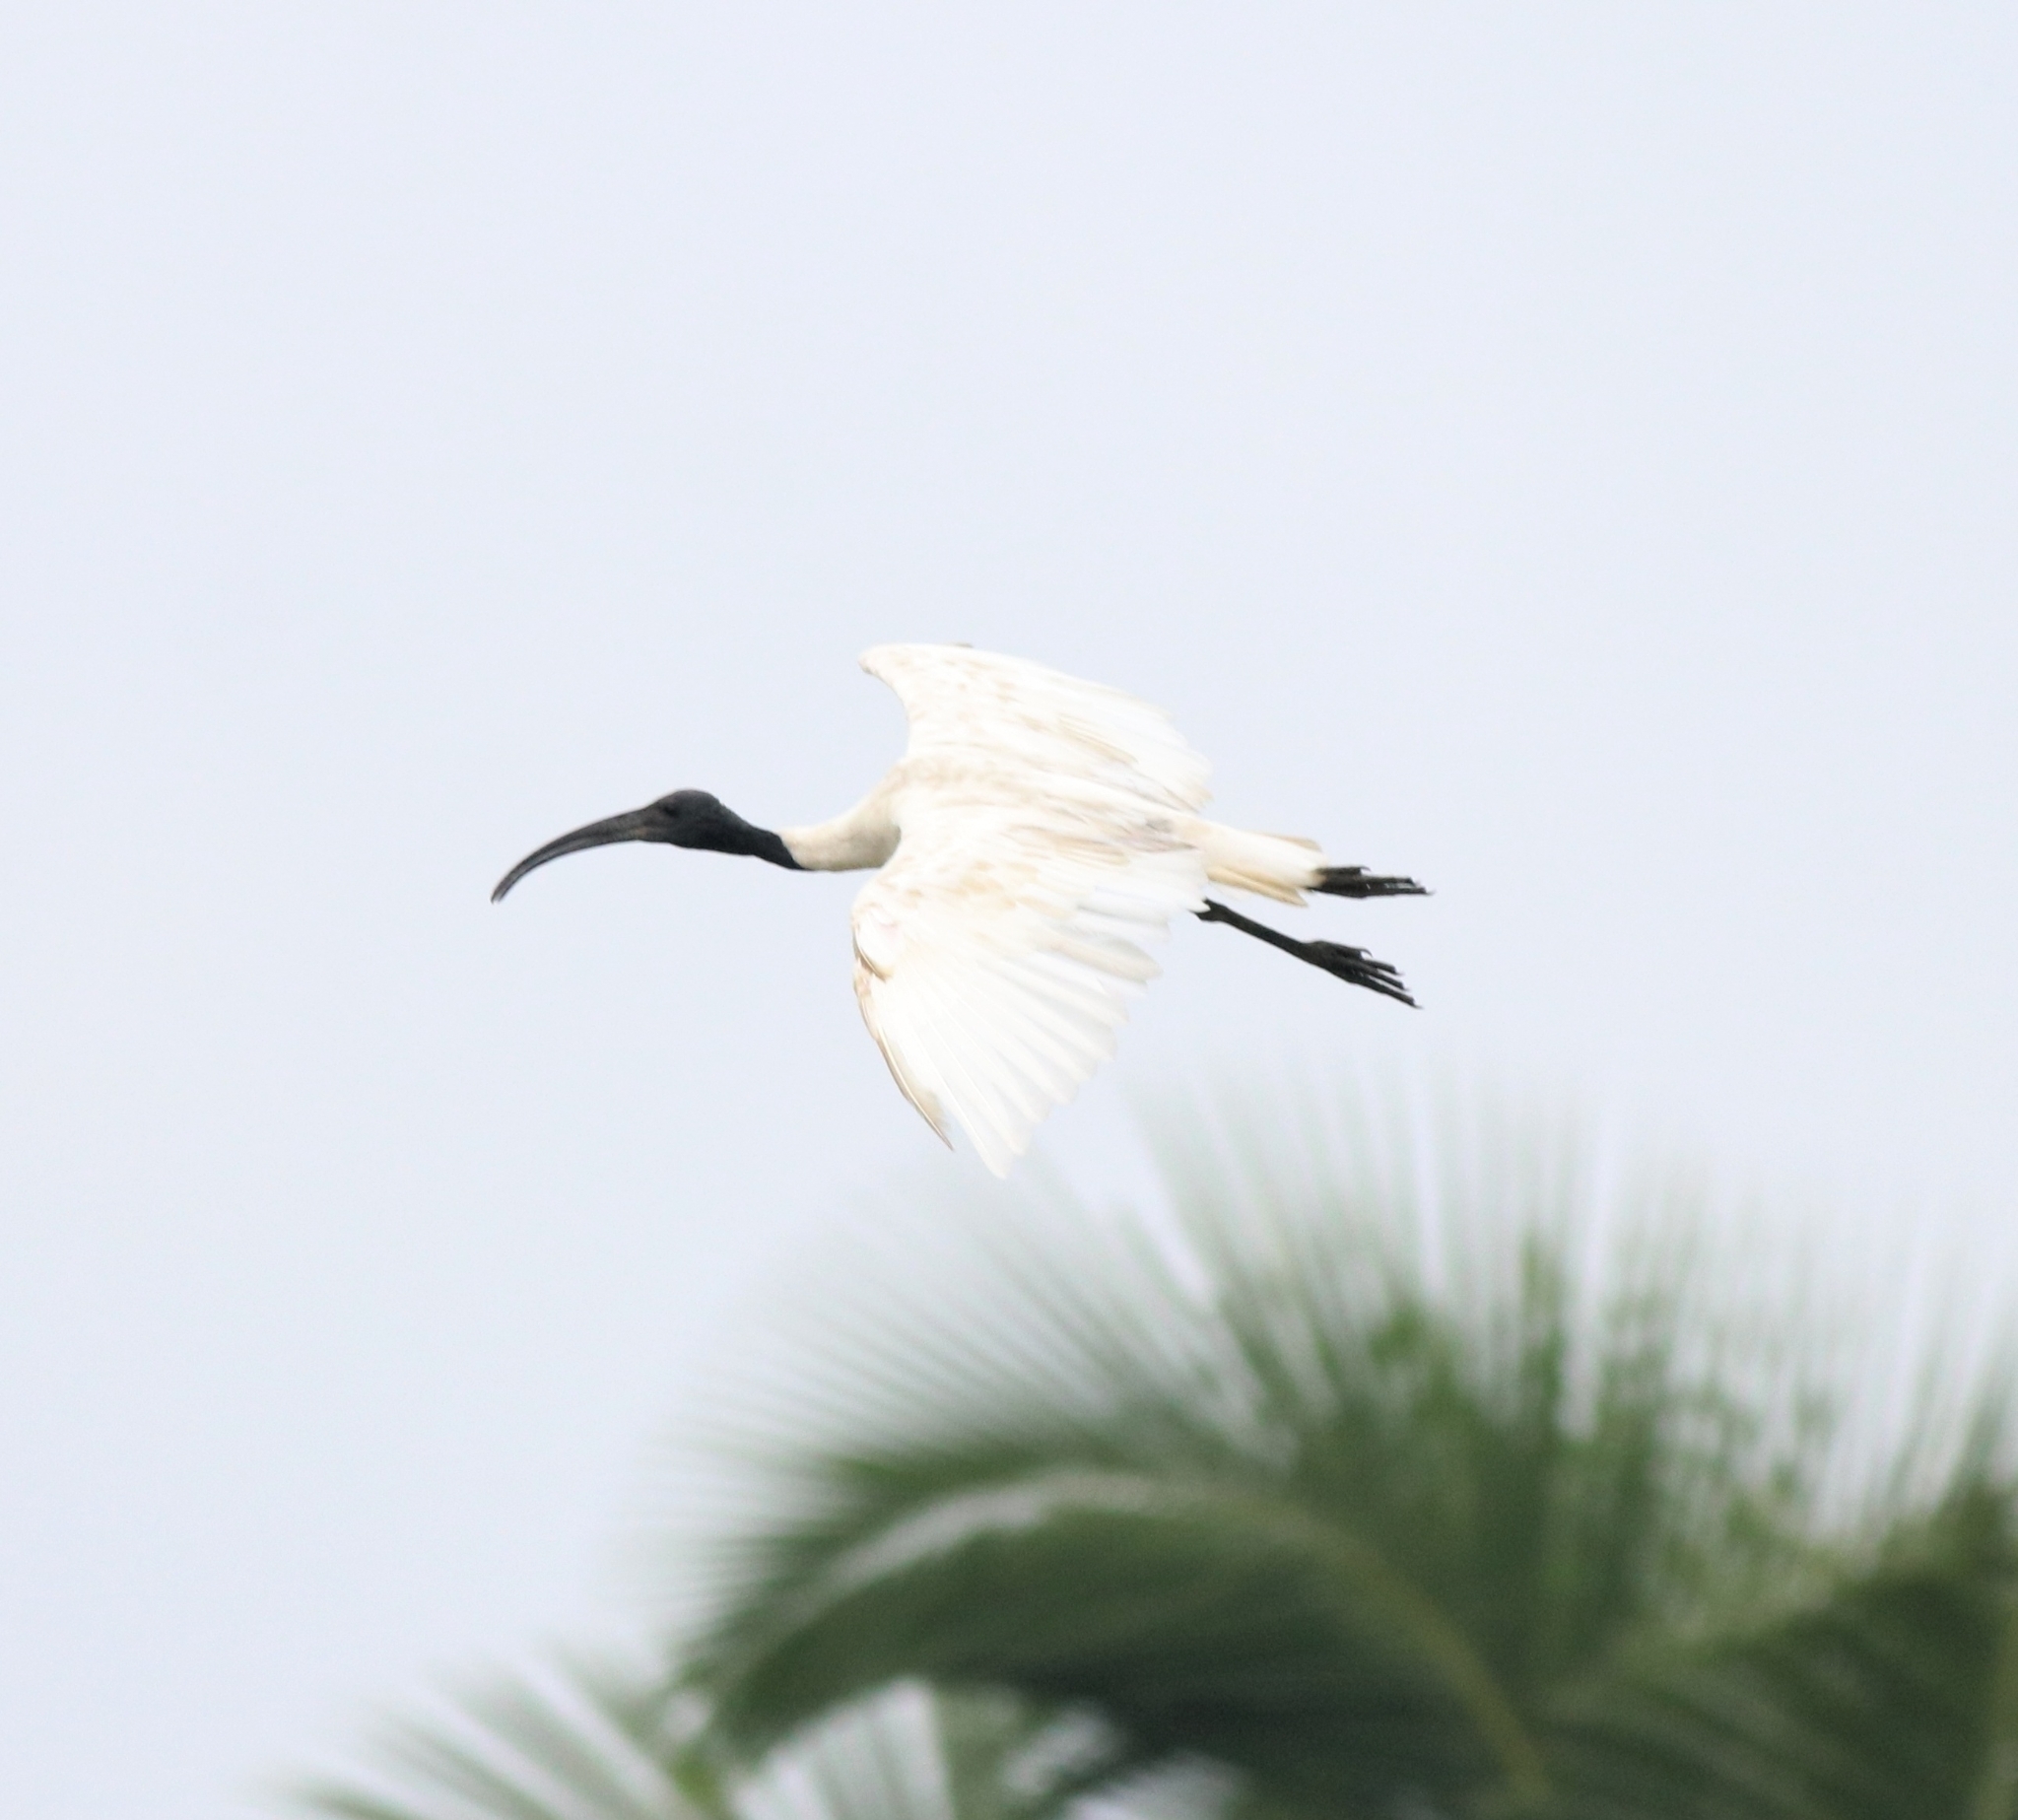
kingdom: Animalia
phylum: Chordata
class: Aves
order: Pelecaniformes
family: Threskiornithidae
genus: Threskiornis
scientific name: Threskiornis melanocephalus
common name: Black-headed ibis
